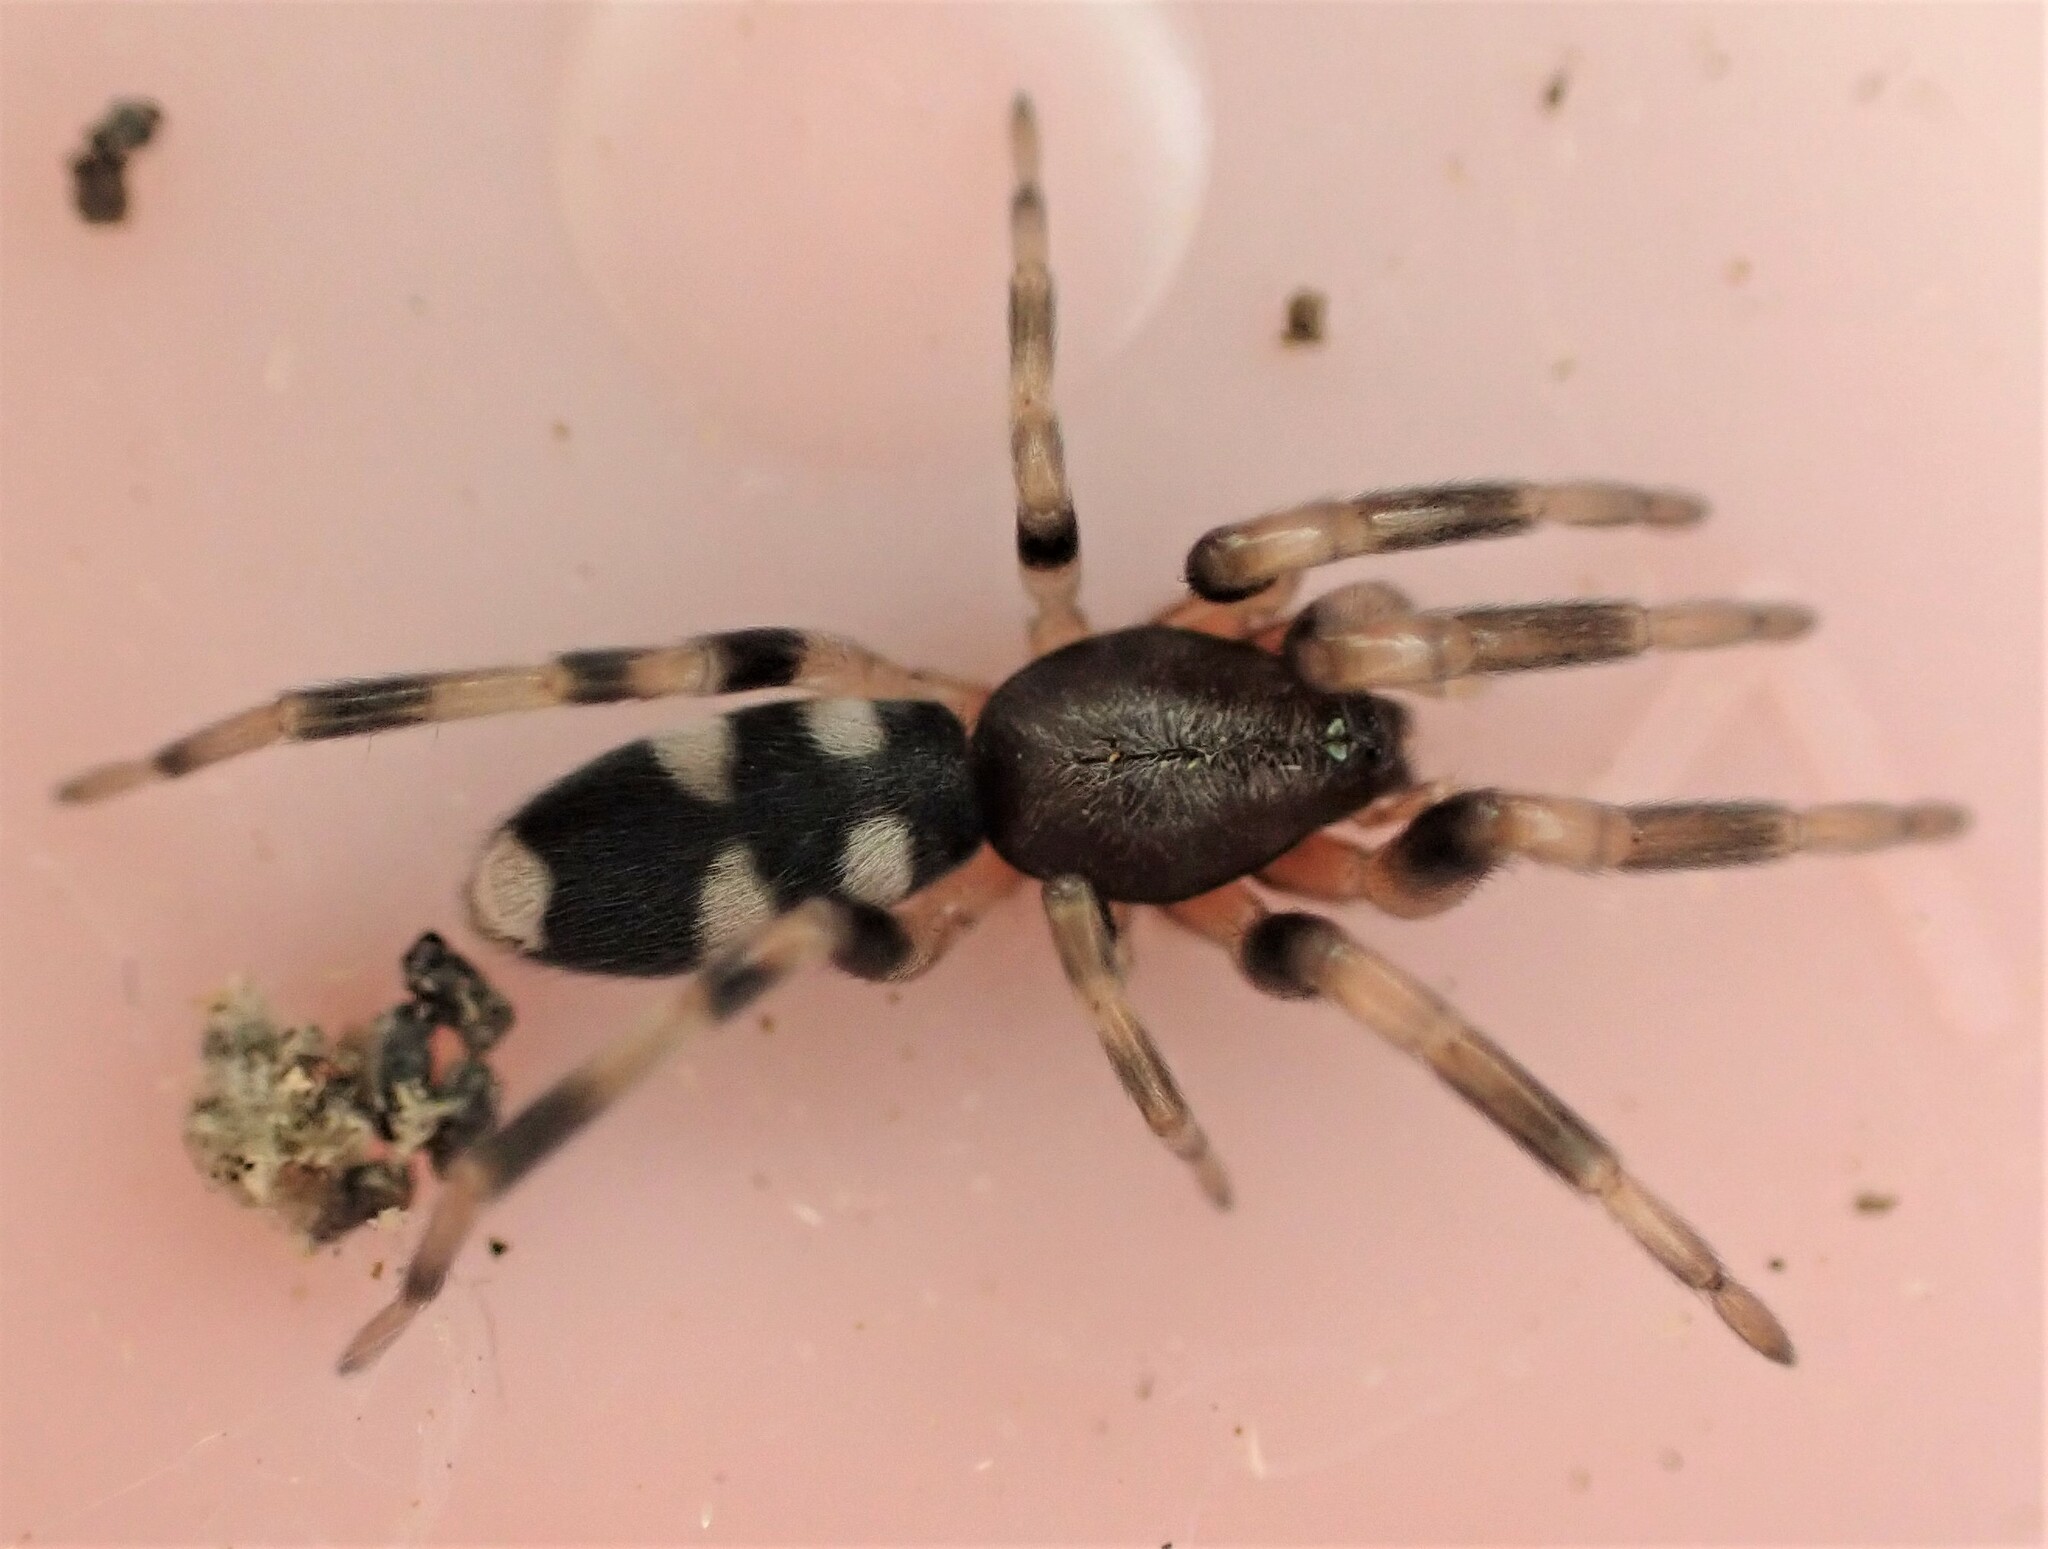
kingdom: Animalia
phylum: Arthropoda
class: Arachnida
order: Araneae
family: Lamponidae
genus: Lampona
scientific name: Lampona cylindrata
